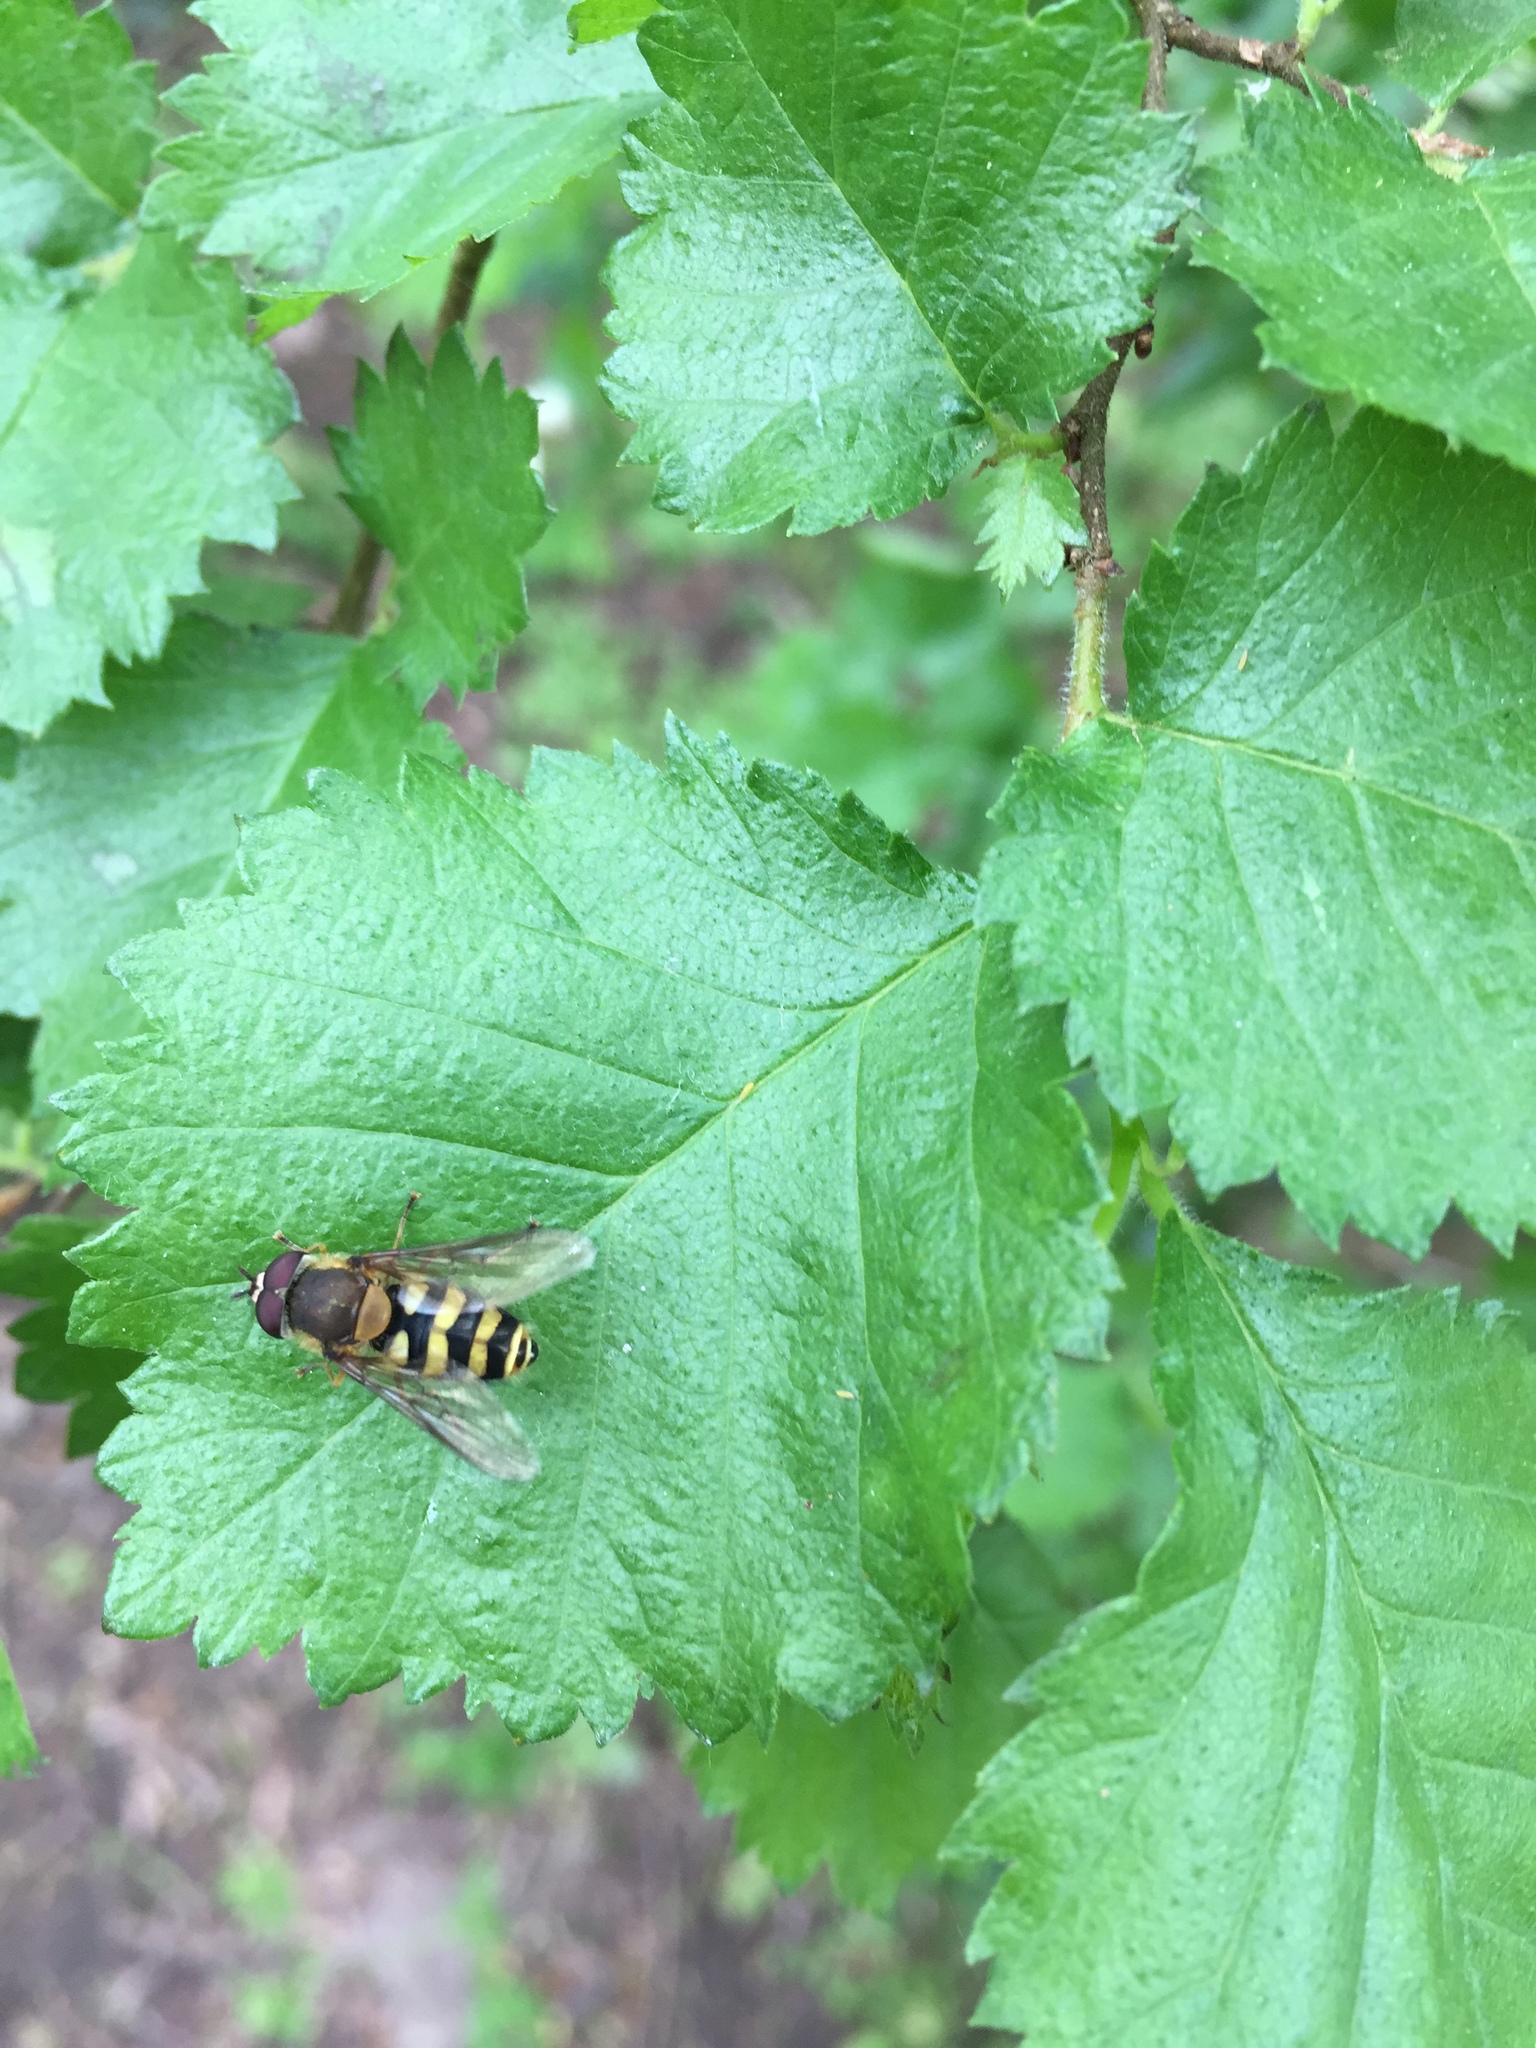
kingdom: Animalia
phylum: Arthropoda
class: Insecta
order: Diptera
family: Syrphidae
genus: Syrphus
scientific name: Syrphus
